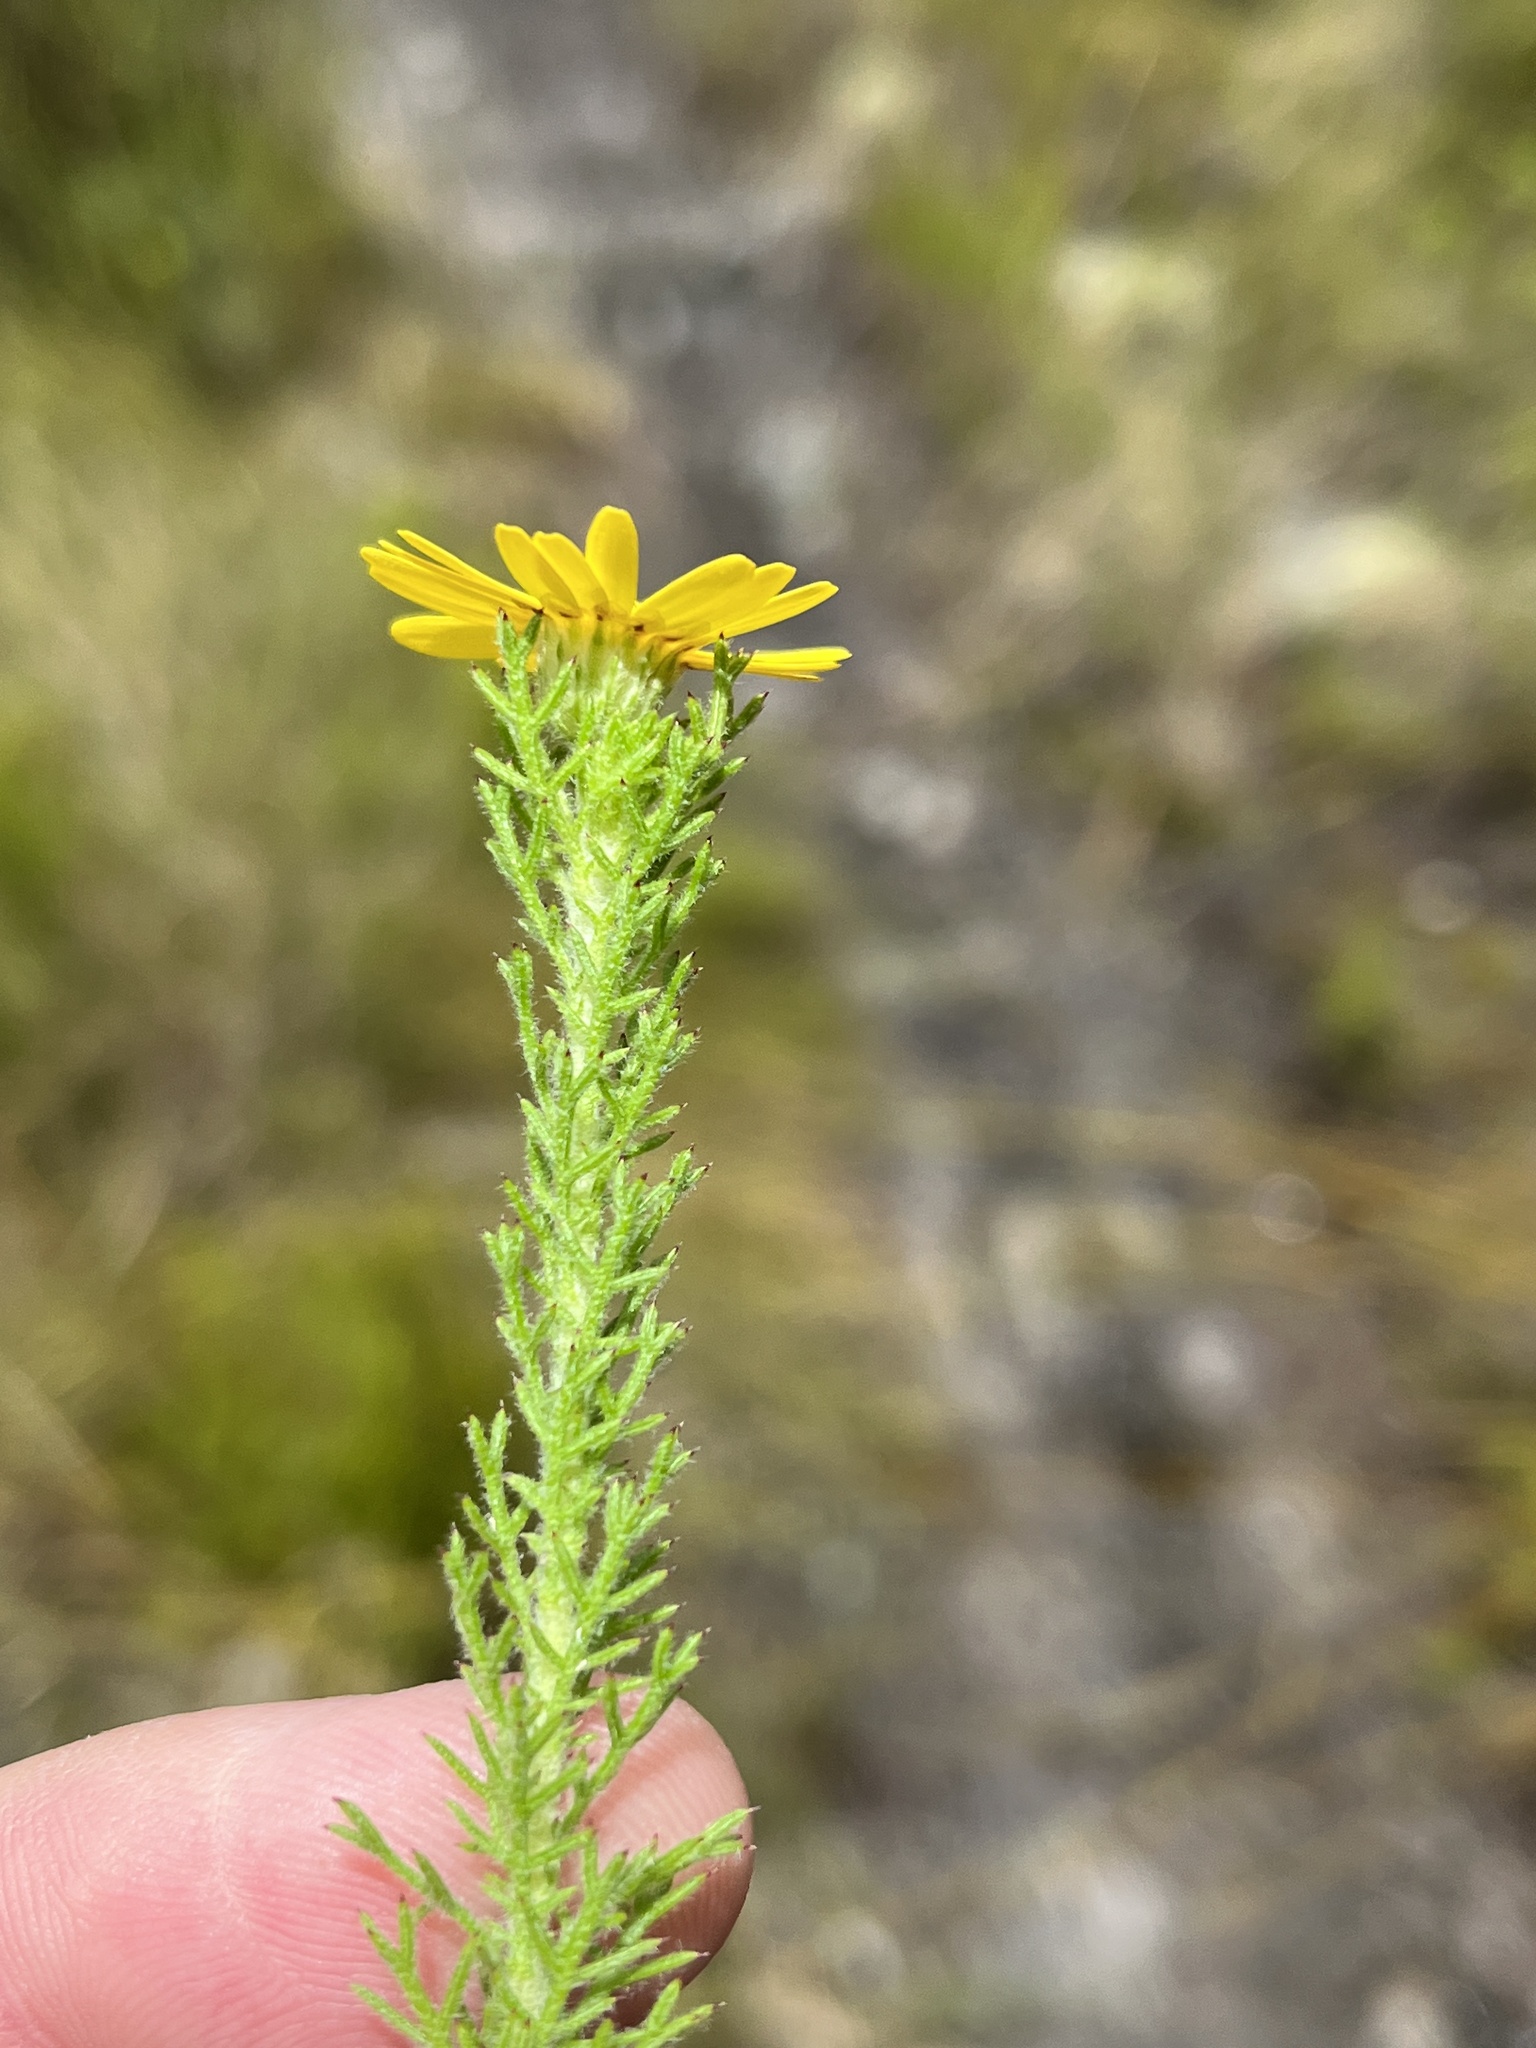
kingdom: Plantae
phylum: Tracheophyta
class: Magnoliopsida
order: Asterales
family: Asteraceae
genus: Ursinia
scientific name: Ursinia hispida
